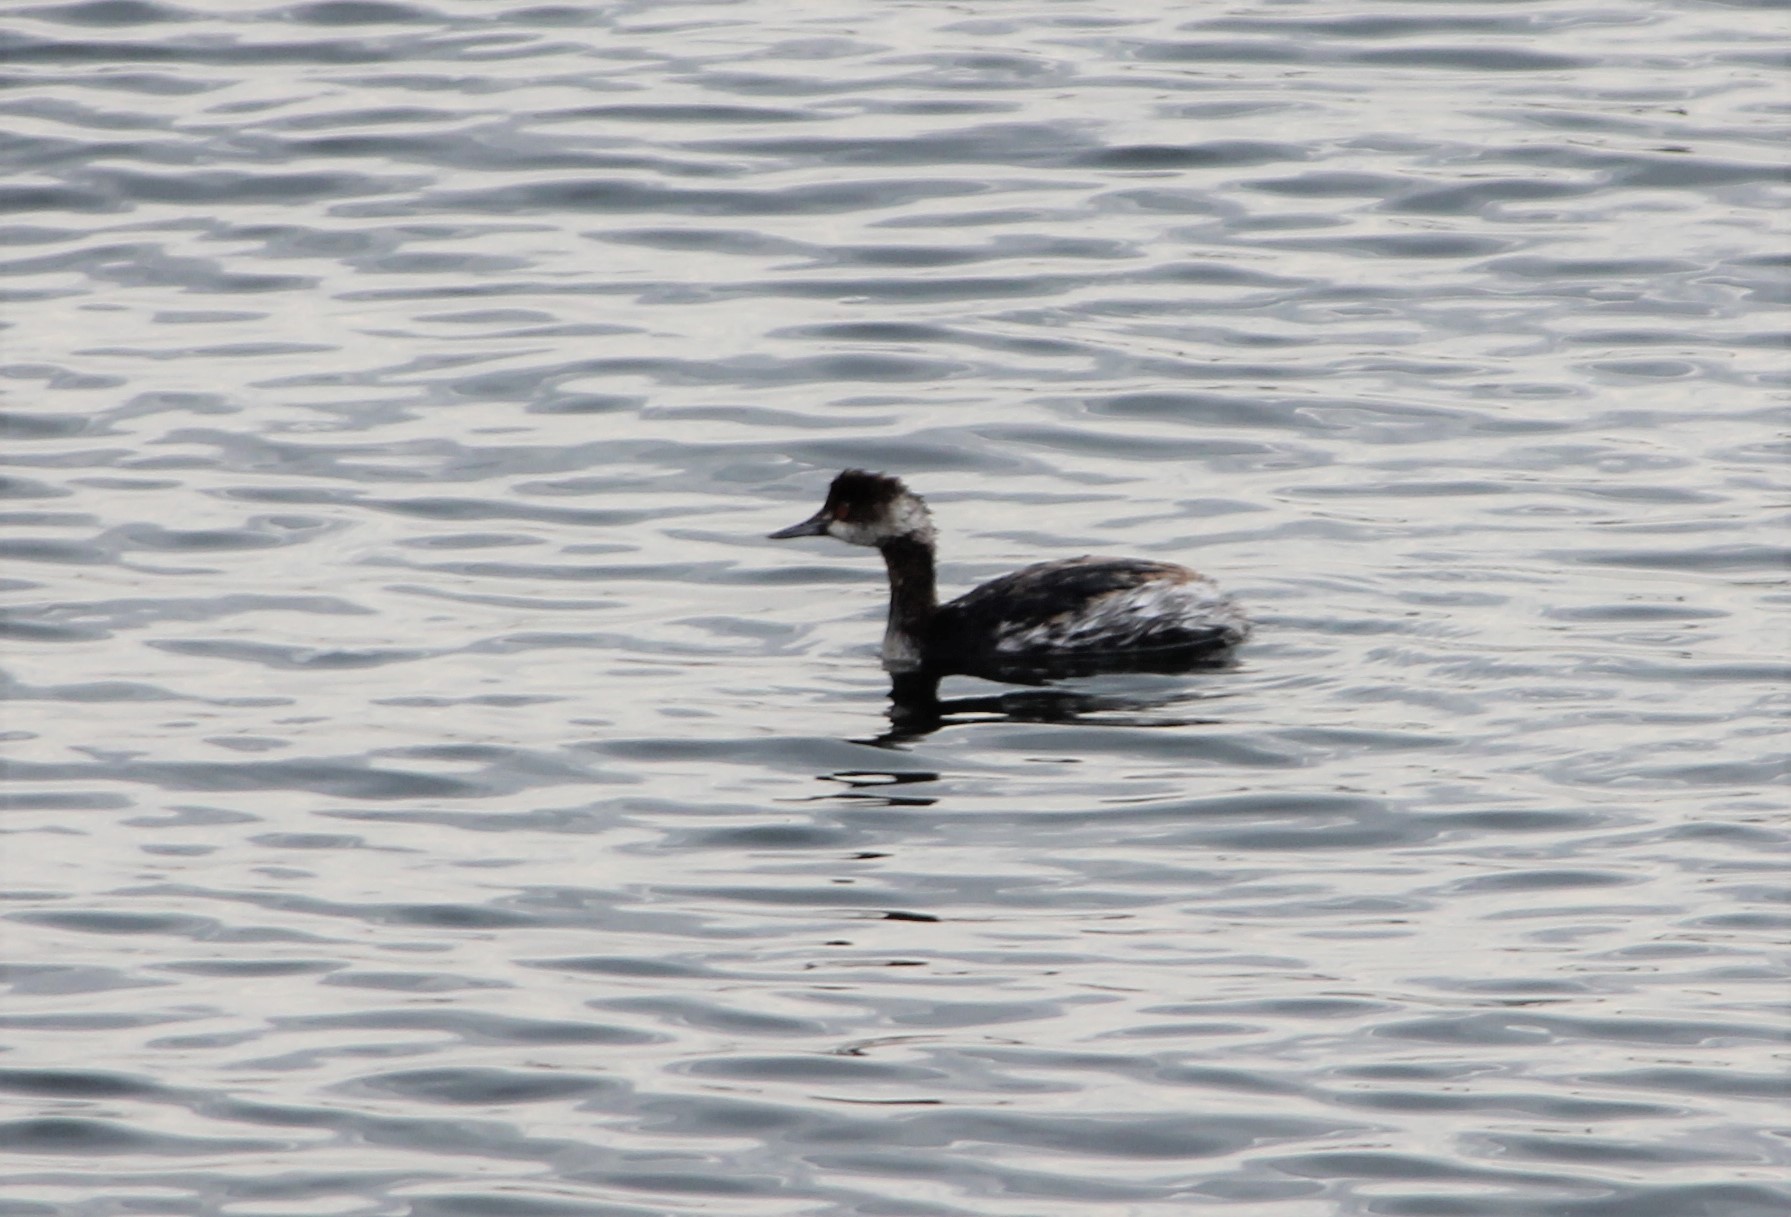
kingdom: Animalia
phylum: Chordata
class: Aves
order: Podicipediformes
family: Podicipedidae
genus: Podiceps
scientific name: Podiceps nigricollis
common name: Black-necked grebe
